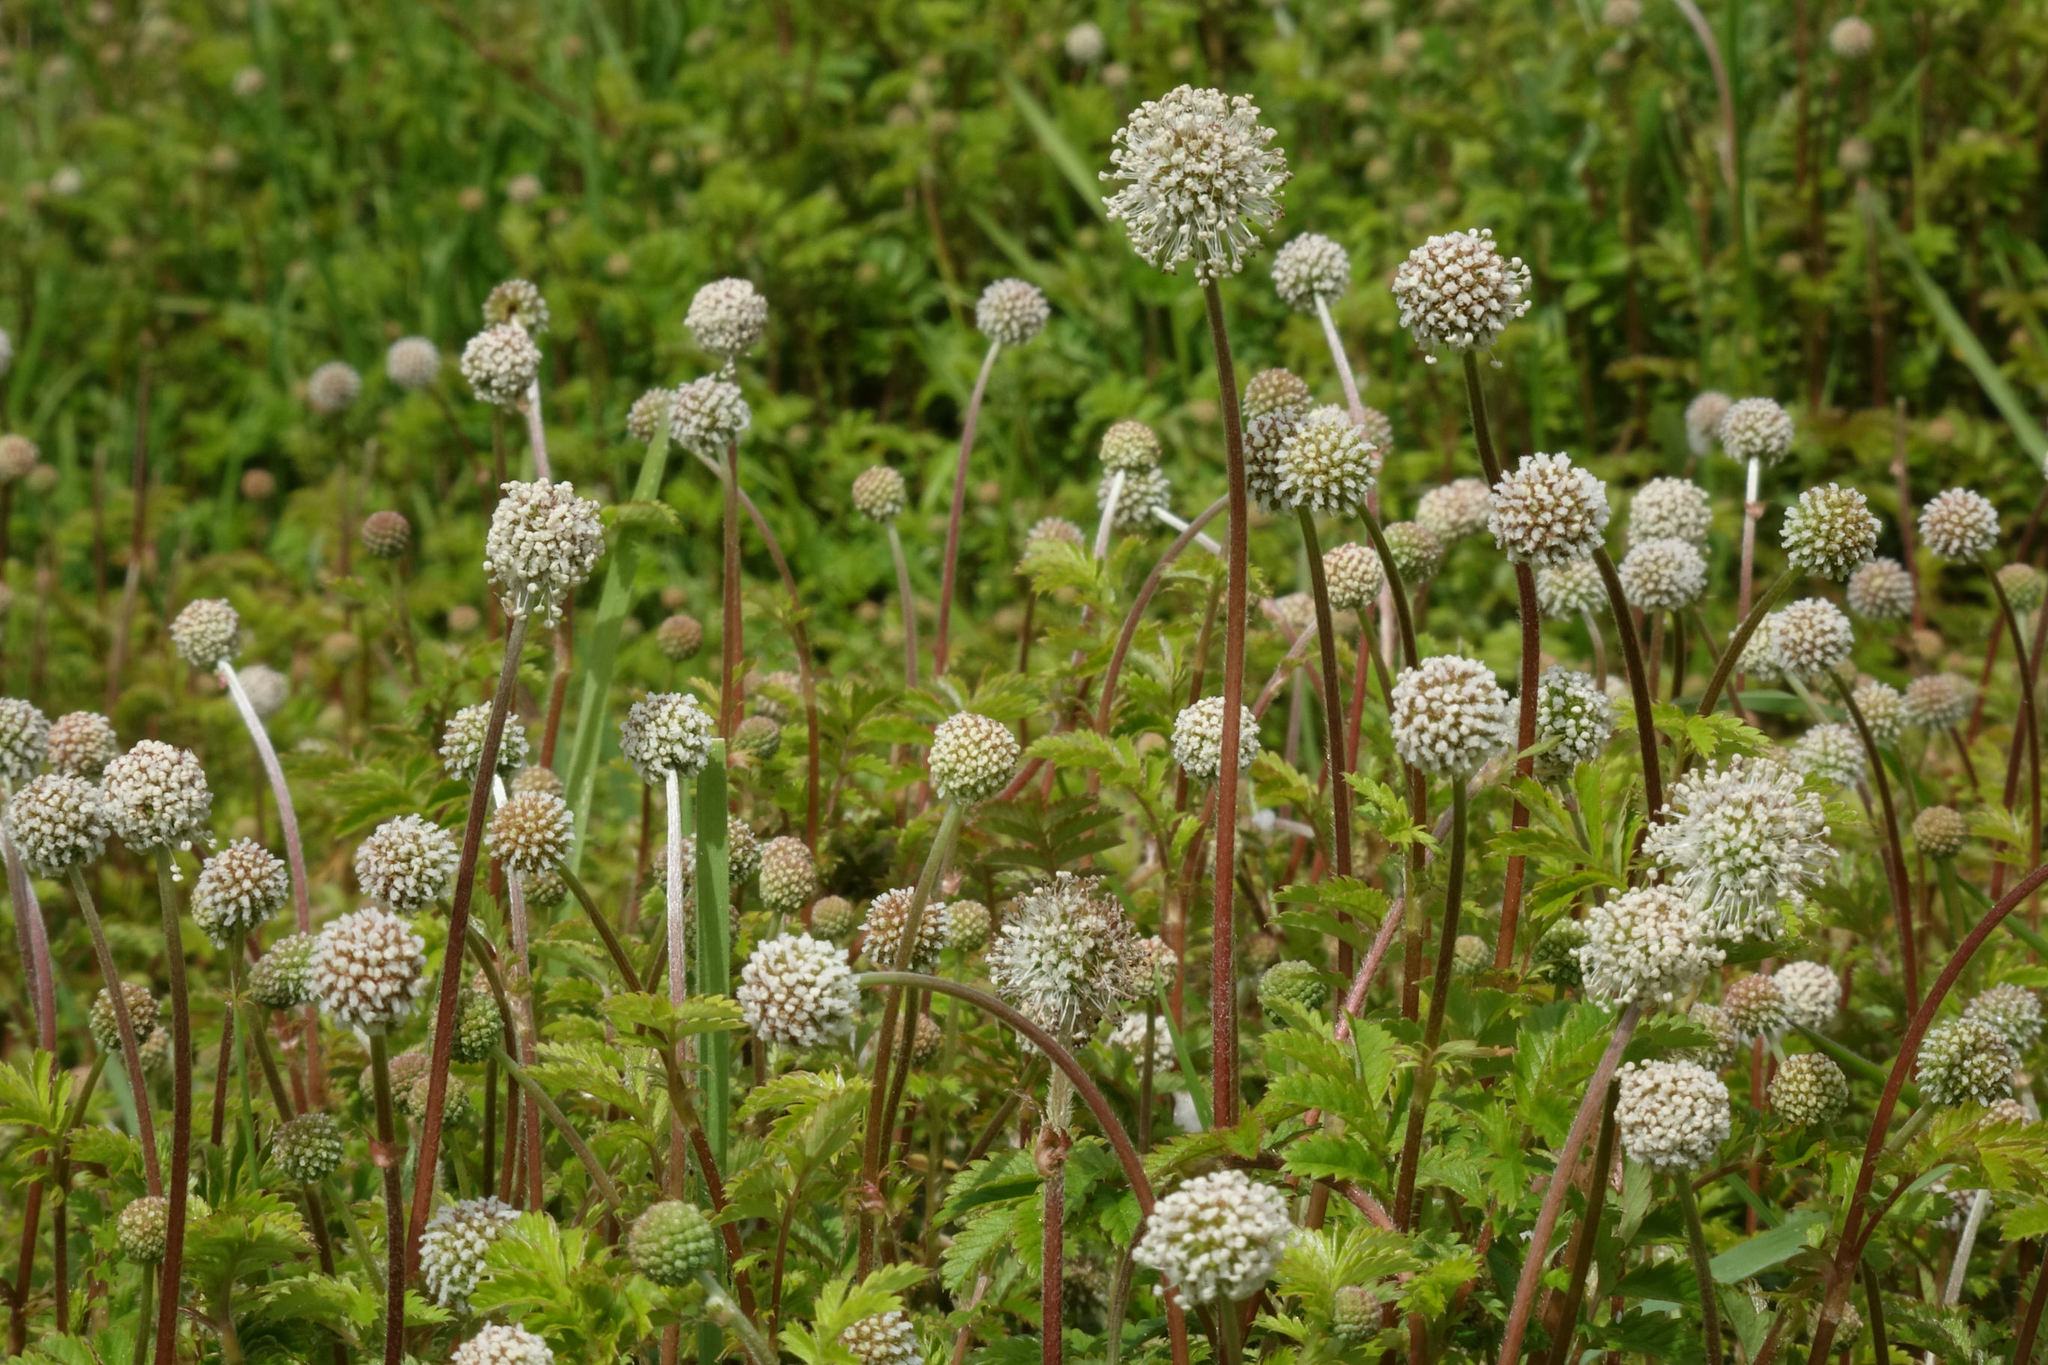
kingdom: Plantae
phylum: Tracheophyta
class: Magnoliopsida
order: Rosales
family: Rosaceae
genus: Acaena
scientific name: Acaena anserinifolia
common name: Bronze pirri-pirri-bur
